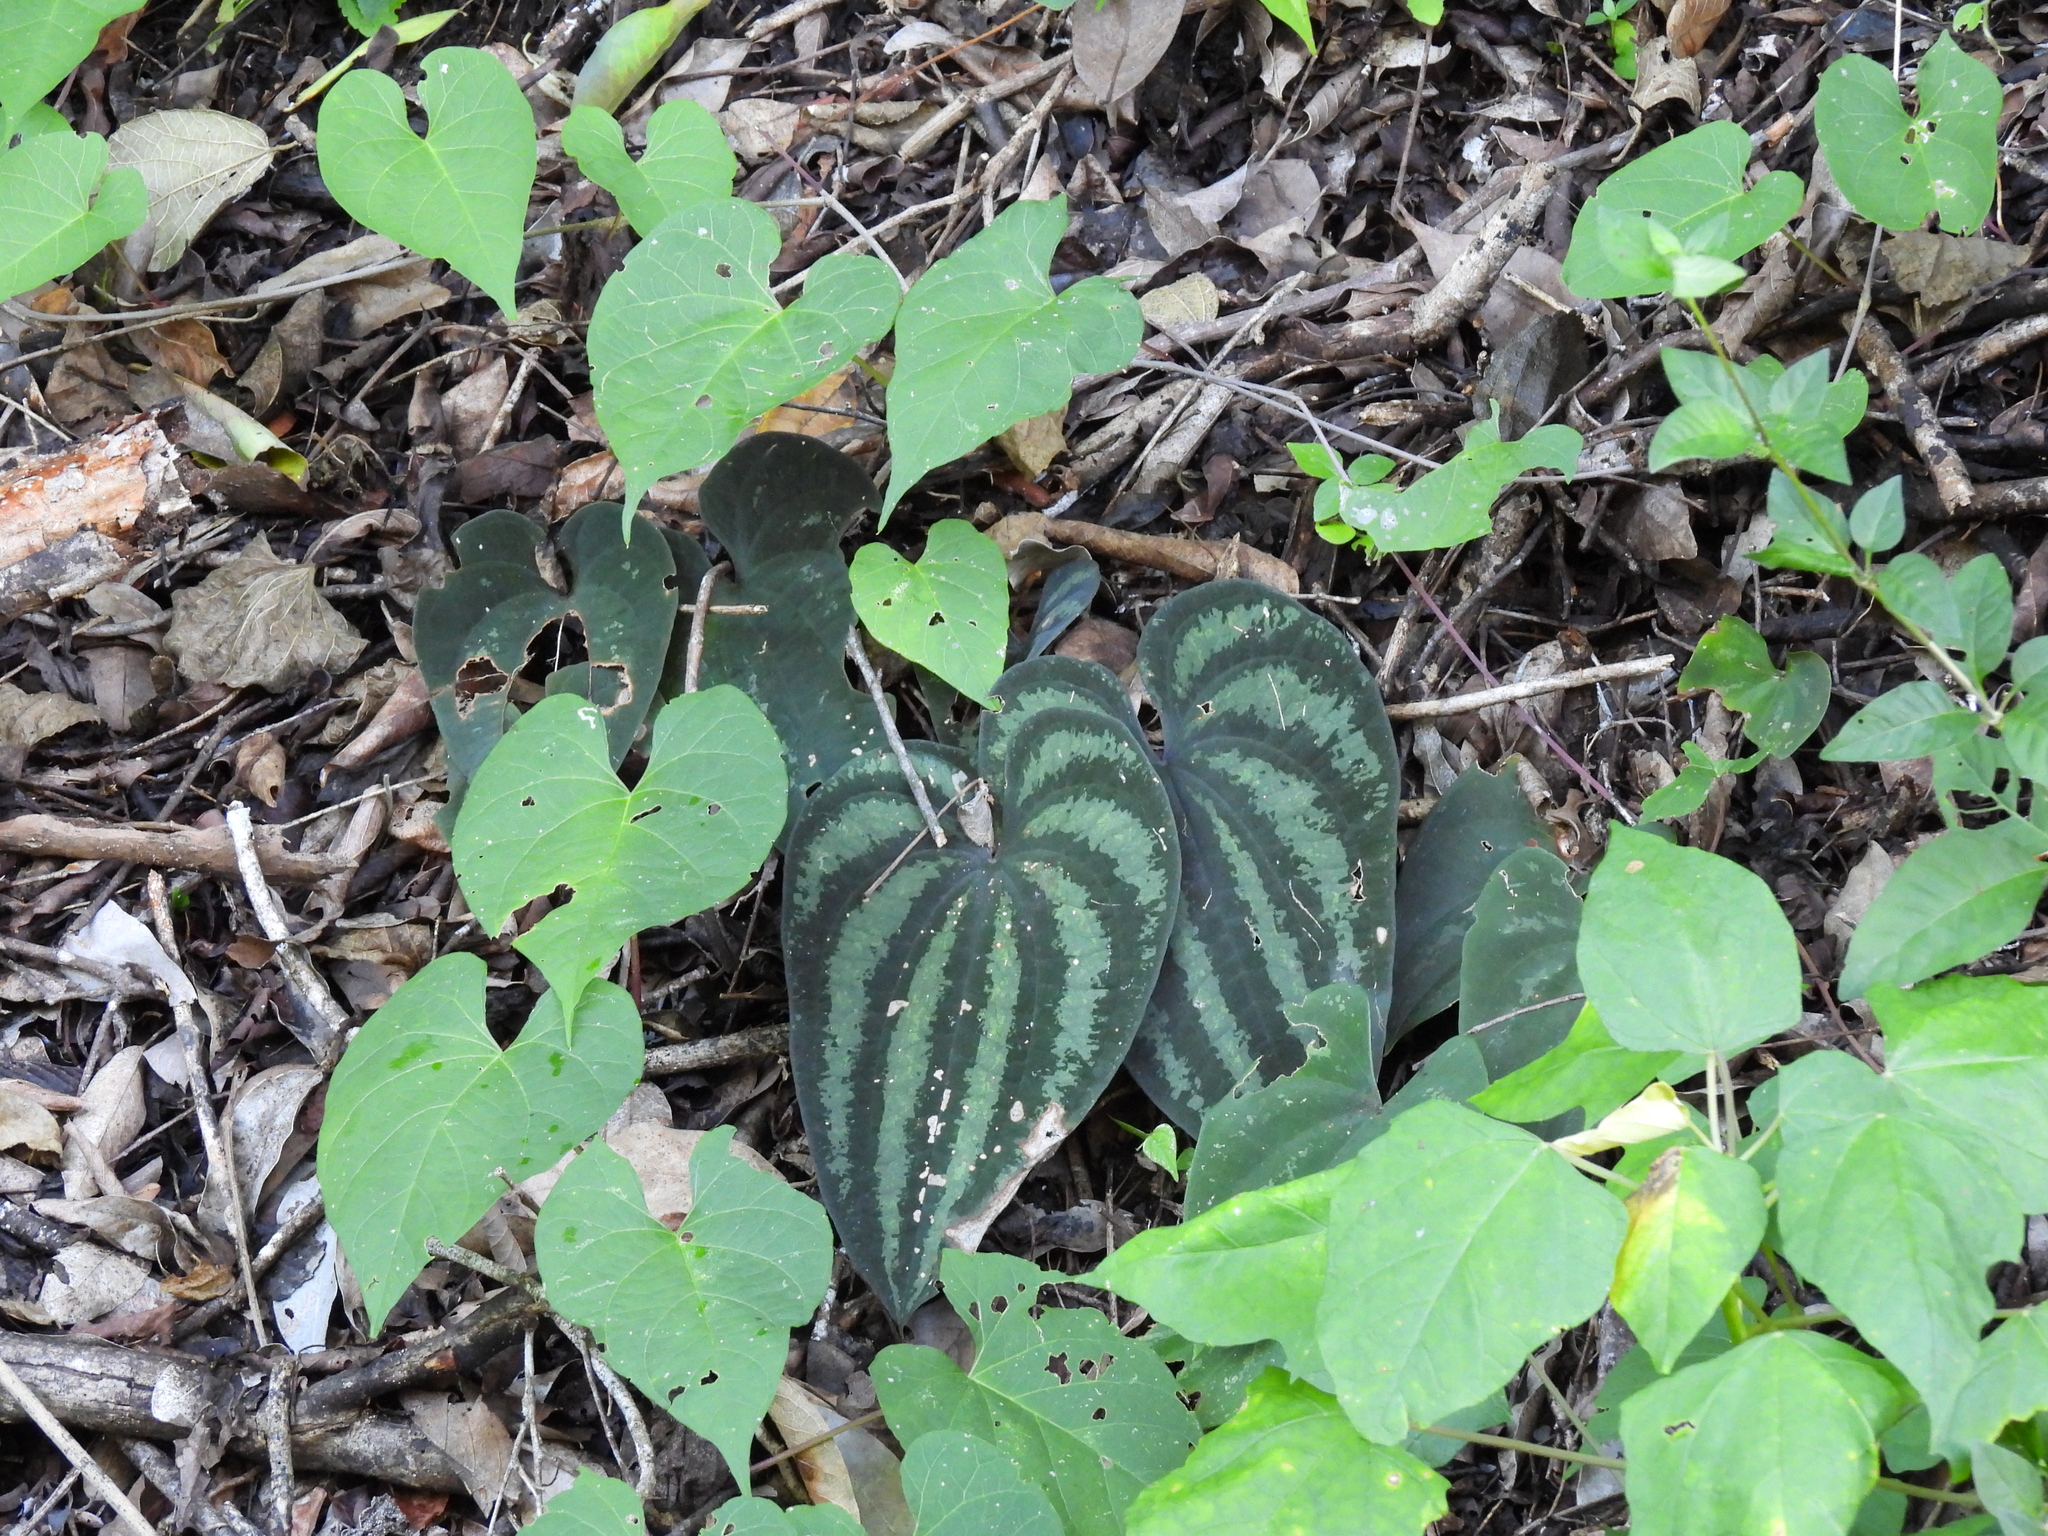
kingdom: Plantae
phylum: Tracheophyta
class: Liliopsida
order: Dioscoreales
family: Dioscoreaceae
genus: Dioscorea
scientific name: Dioscorea cyanisticta
